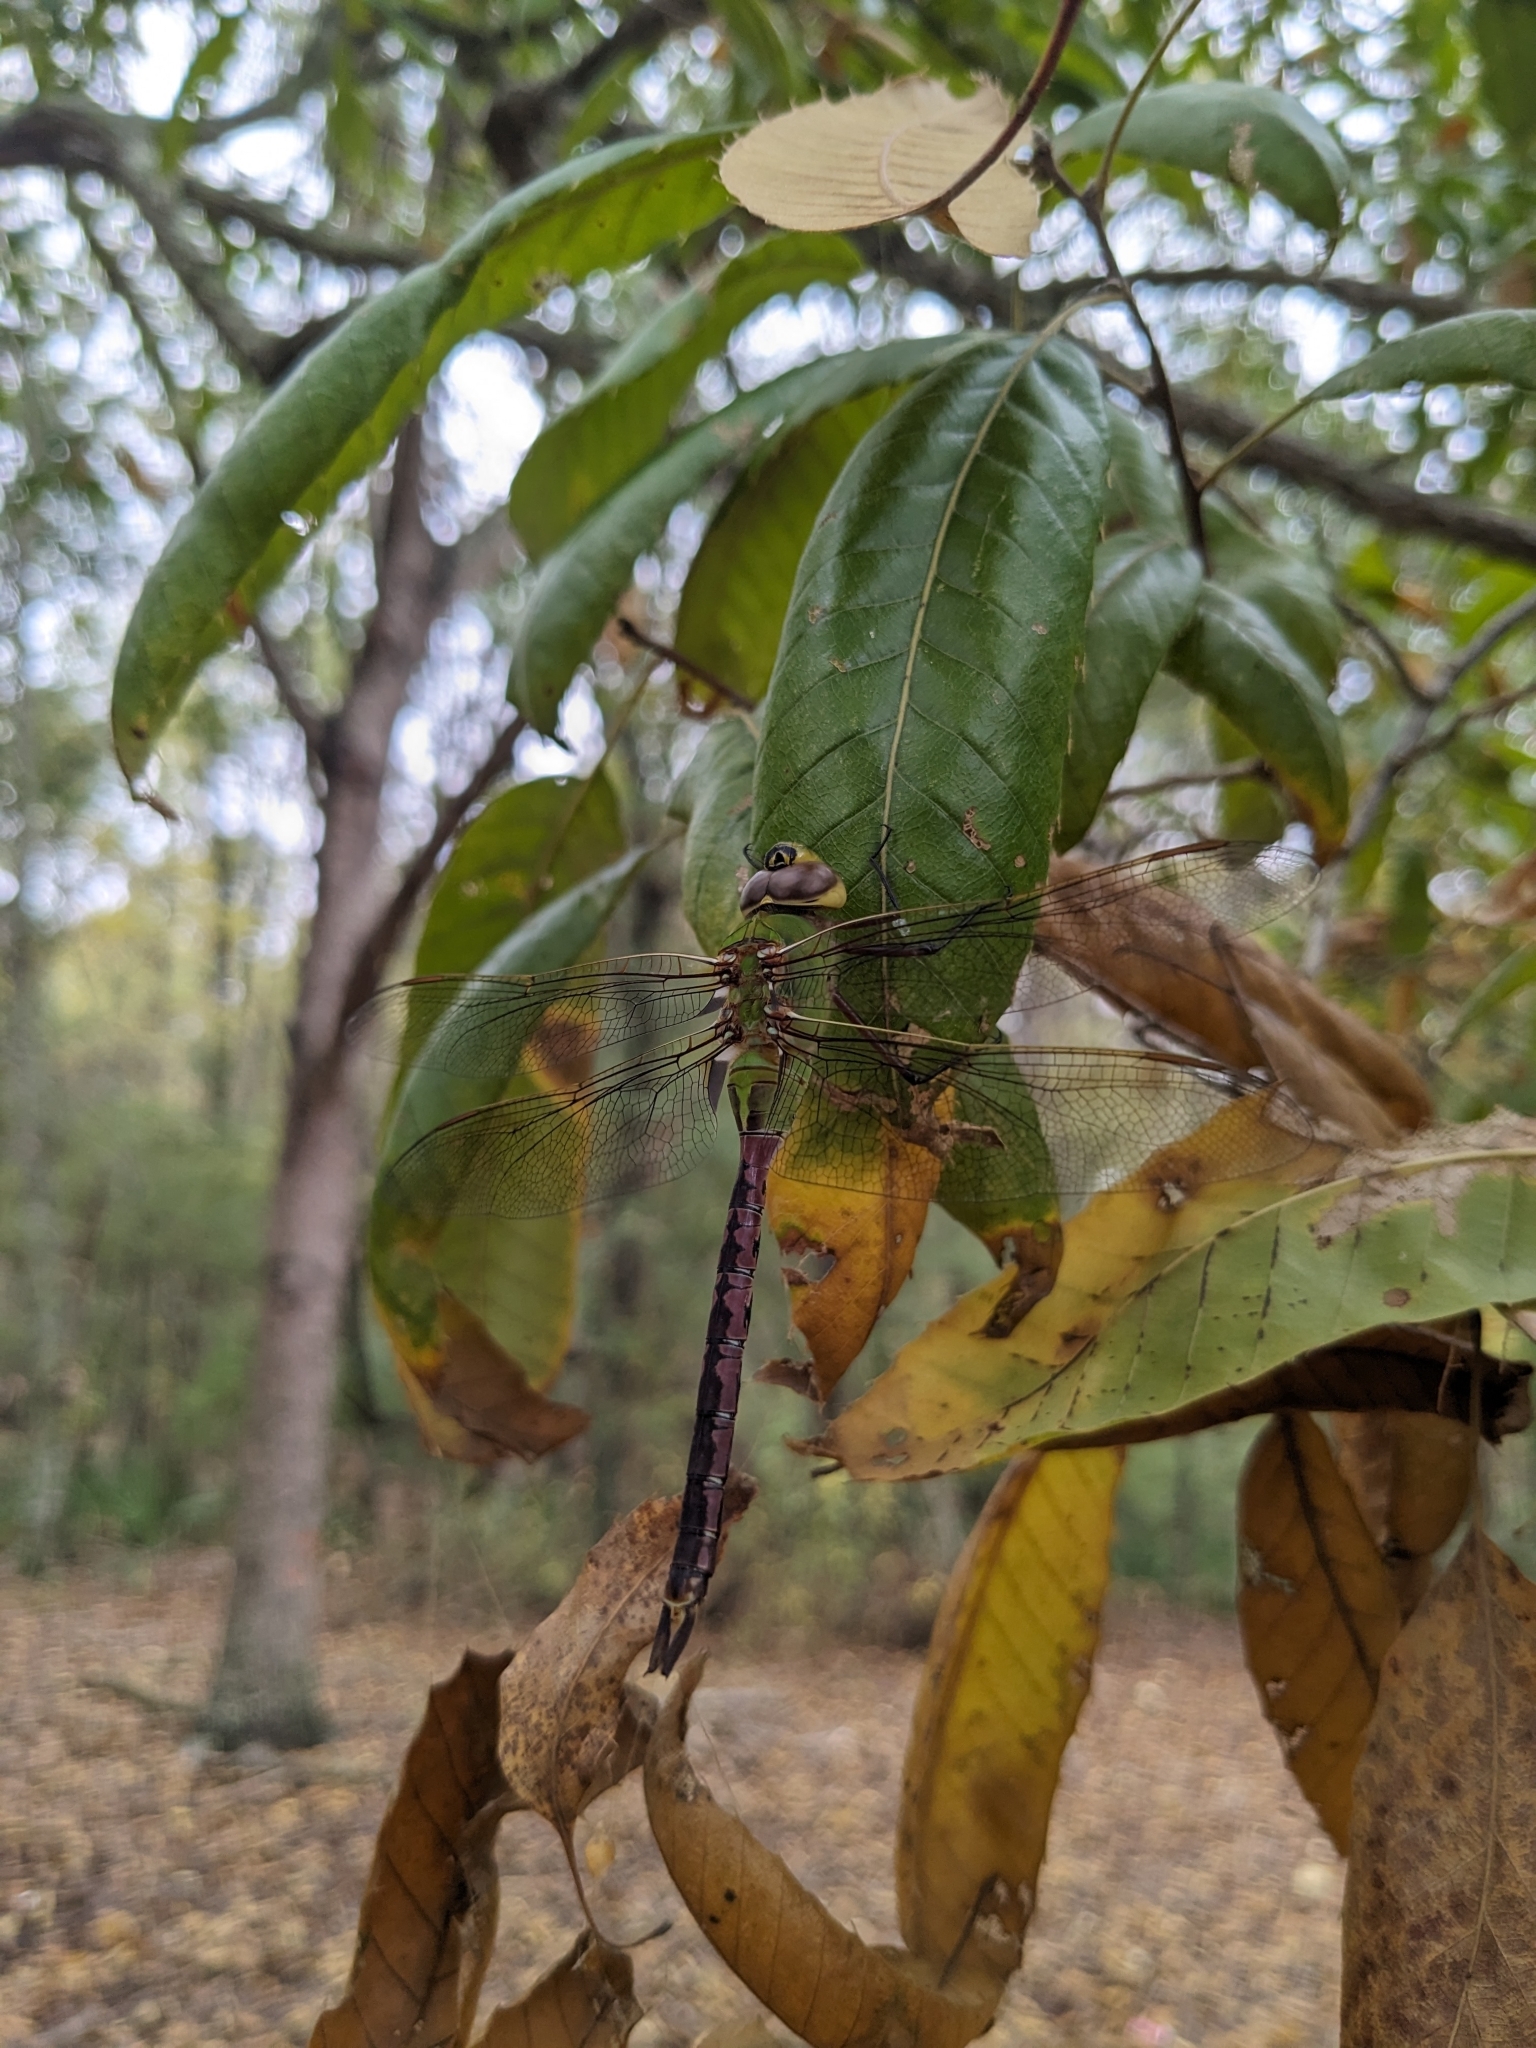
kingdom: Animalia
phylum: Arthropoda
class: Insecta
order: Odonata
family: Aeshnidae
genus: Anax
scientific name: Anax junius
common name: Common green darner
